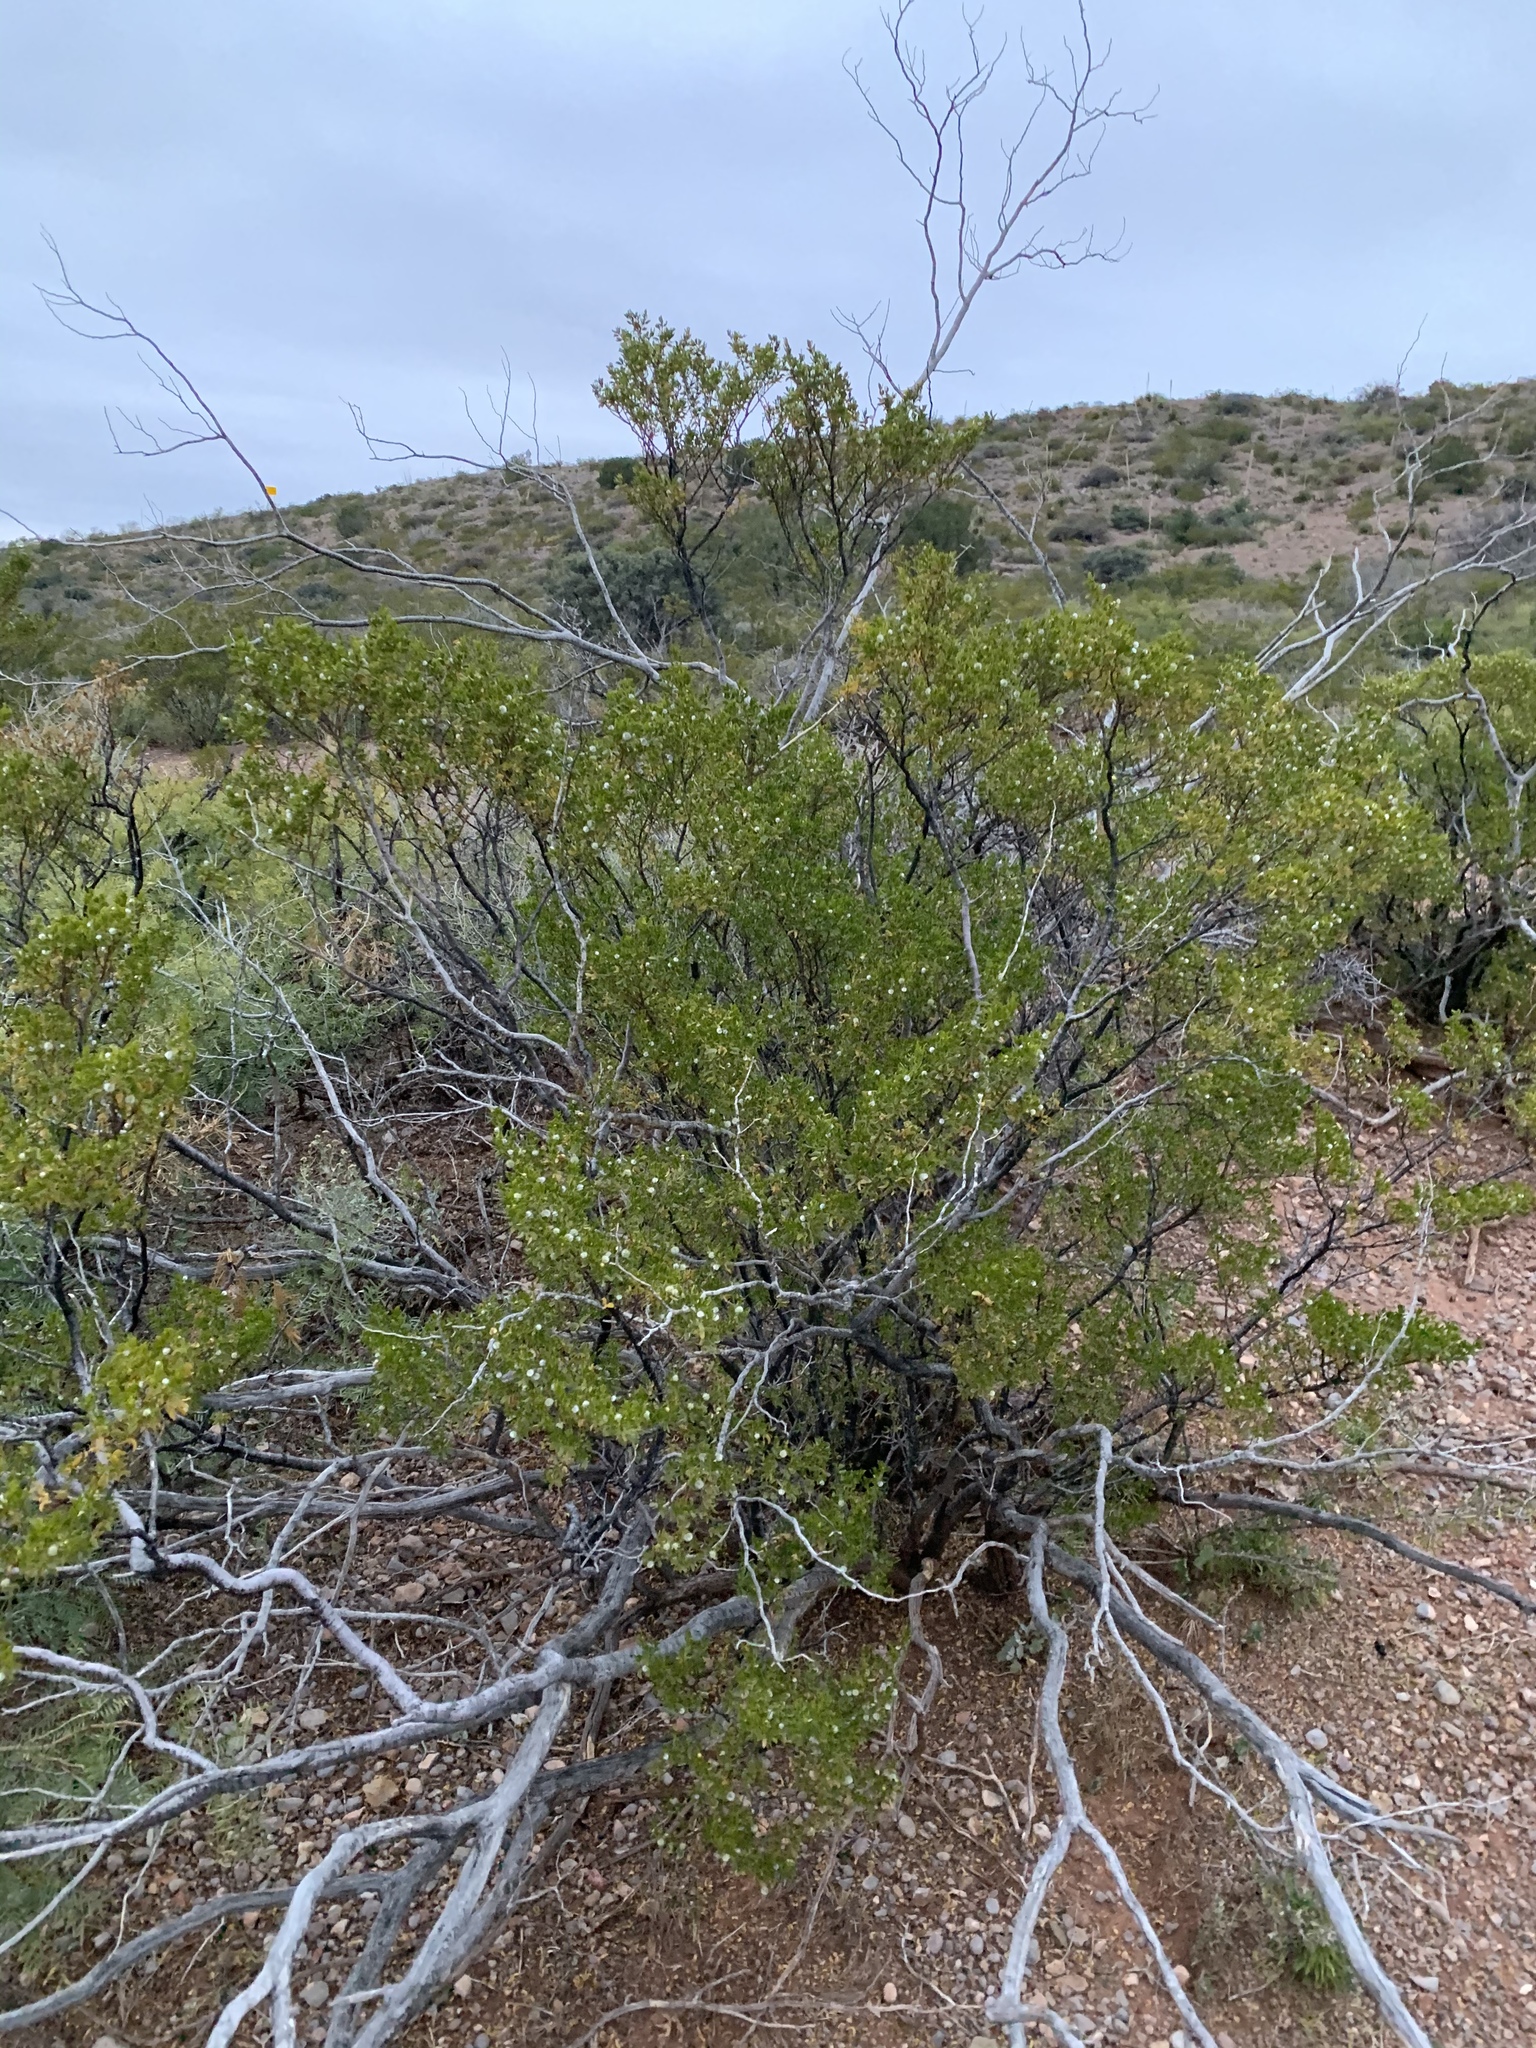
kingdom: Plantae
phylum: Tracheophyta
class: Magnoliopsida
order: Zygophyllales
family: Zygophyllaceae
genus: Larrea
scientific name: Larrea tridentata
